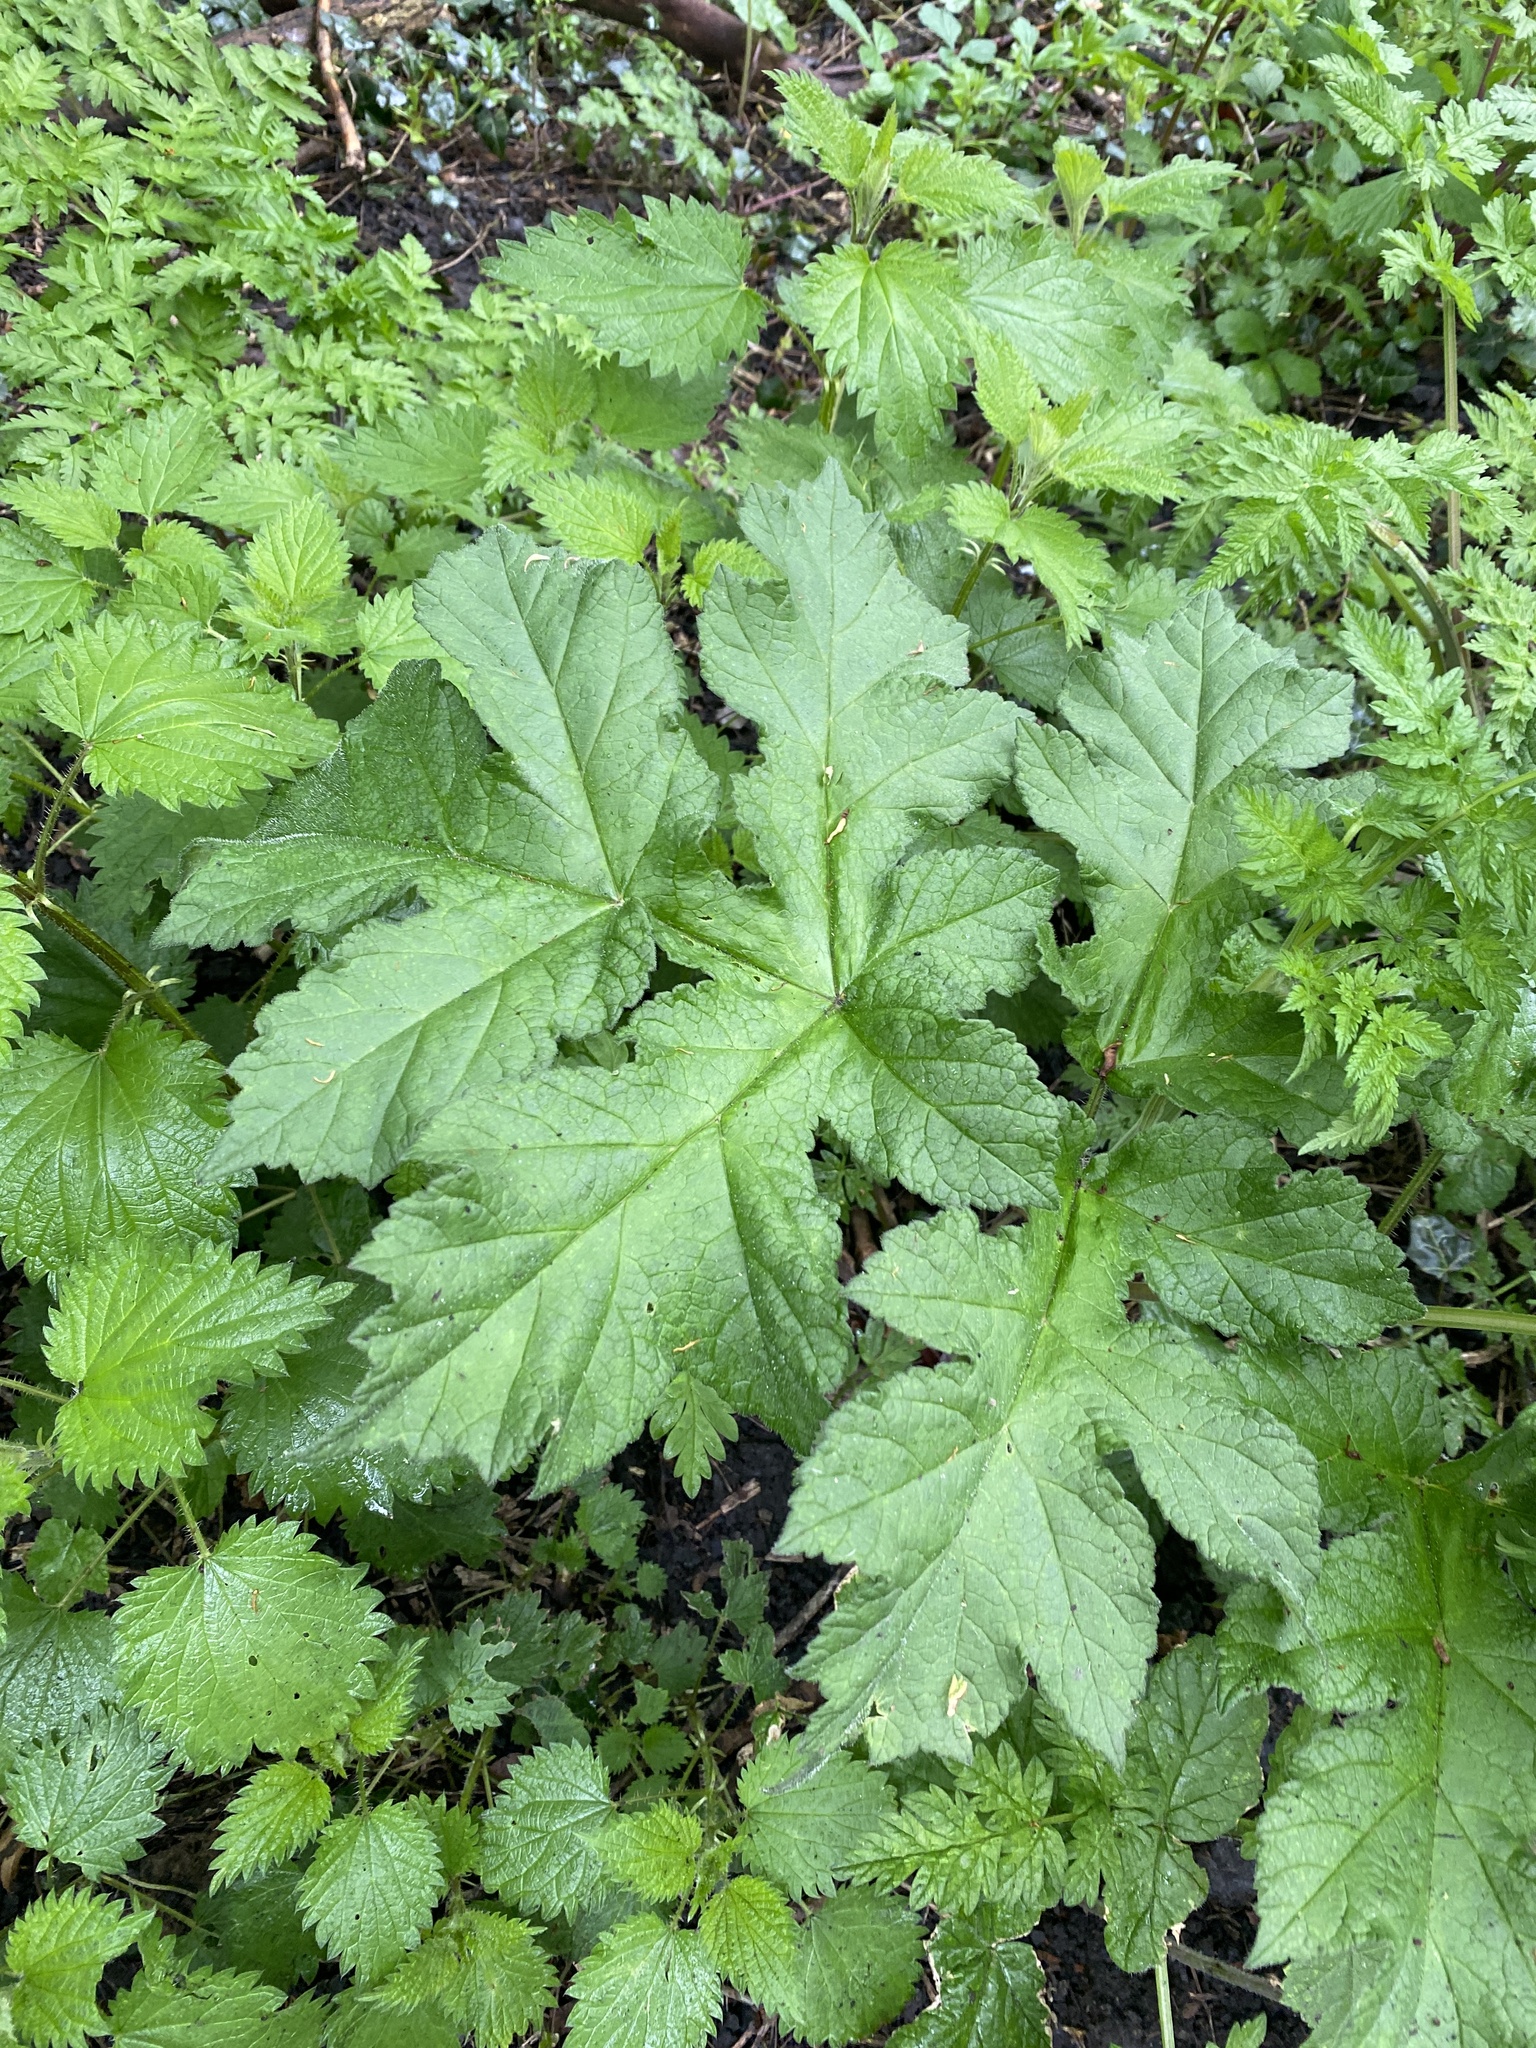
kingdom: Plantae
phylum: Tracheophyta
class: Magnoliopsida
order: Apiales
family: Apiaceae
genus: Heracleum
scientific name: Heracleum sphondylium
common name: Hogweed
